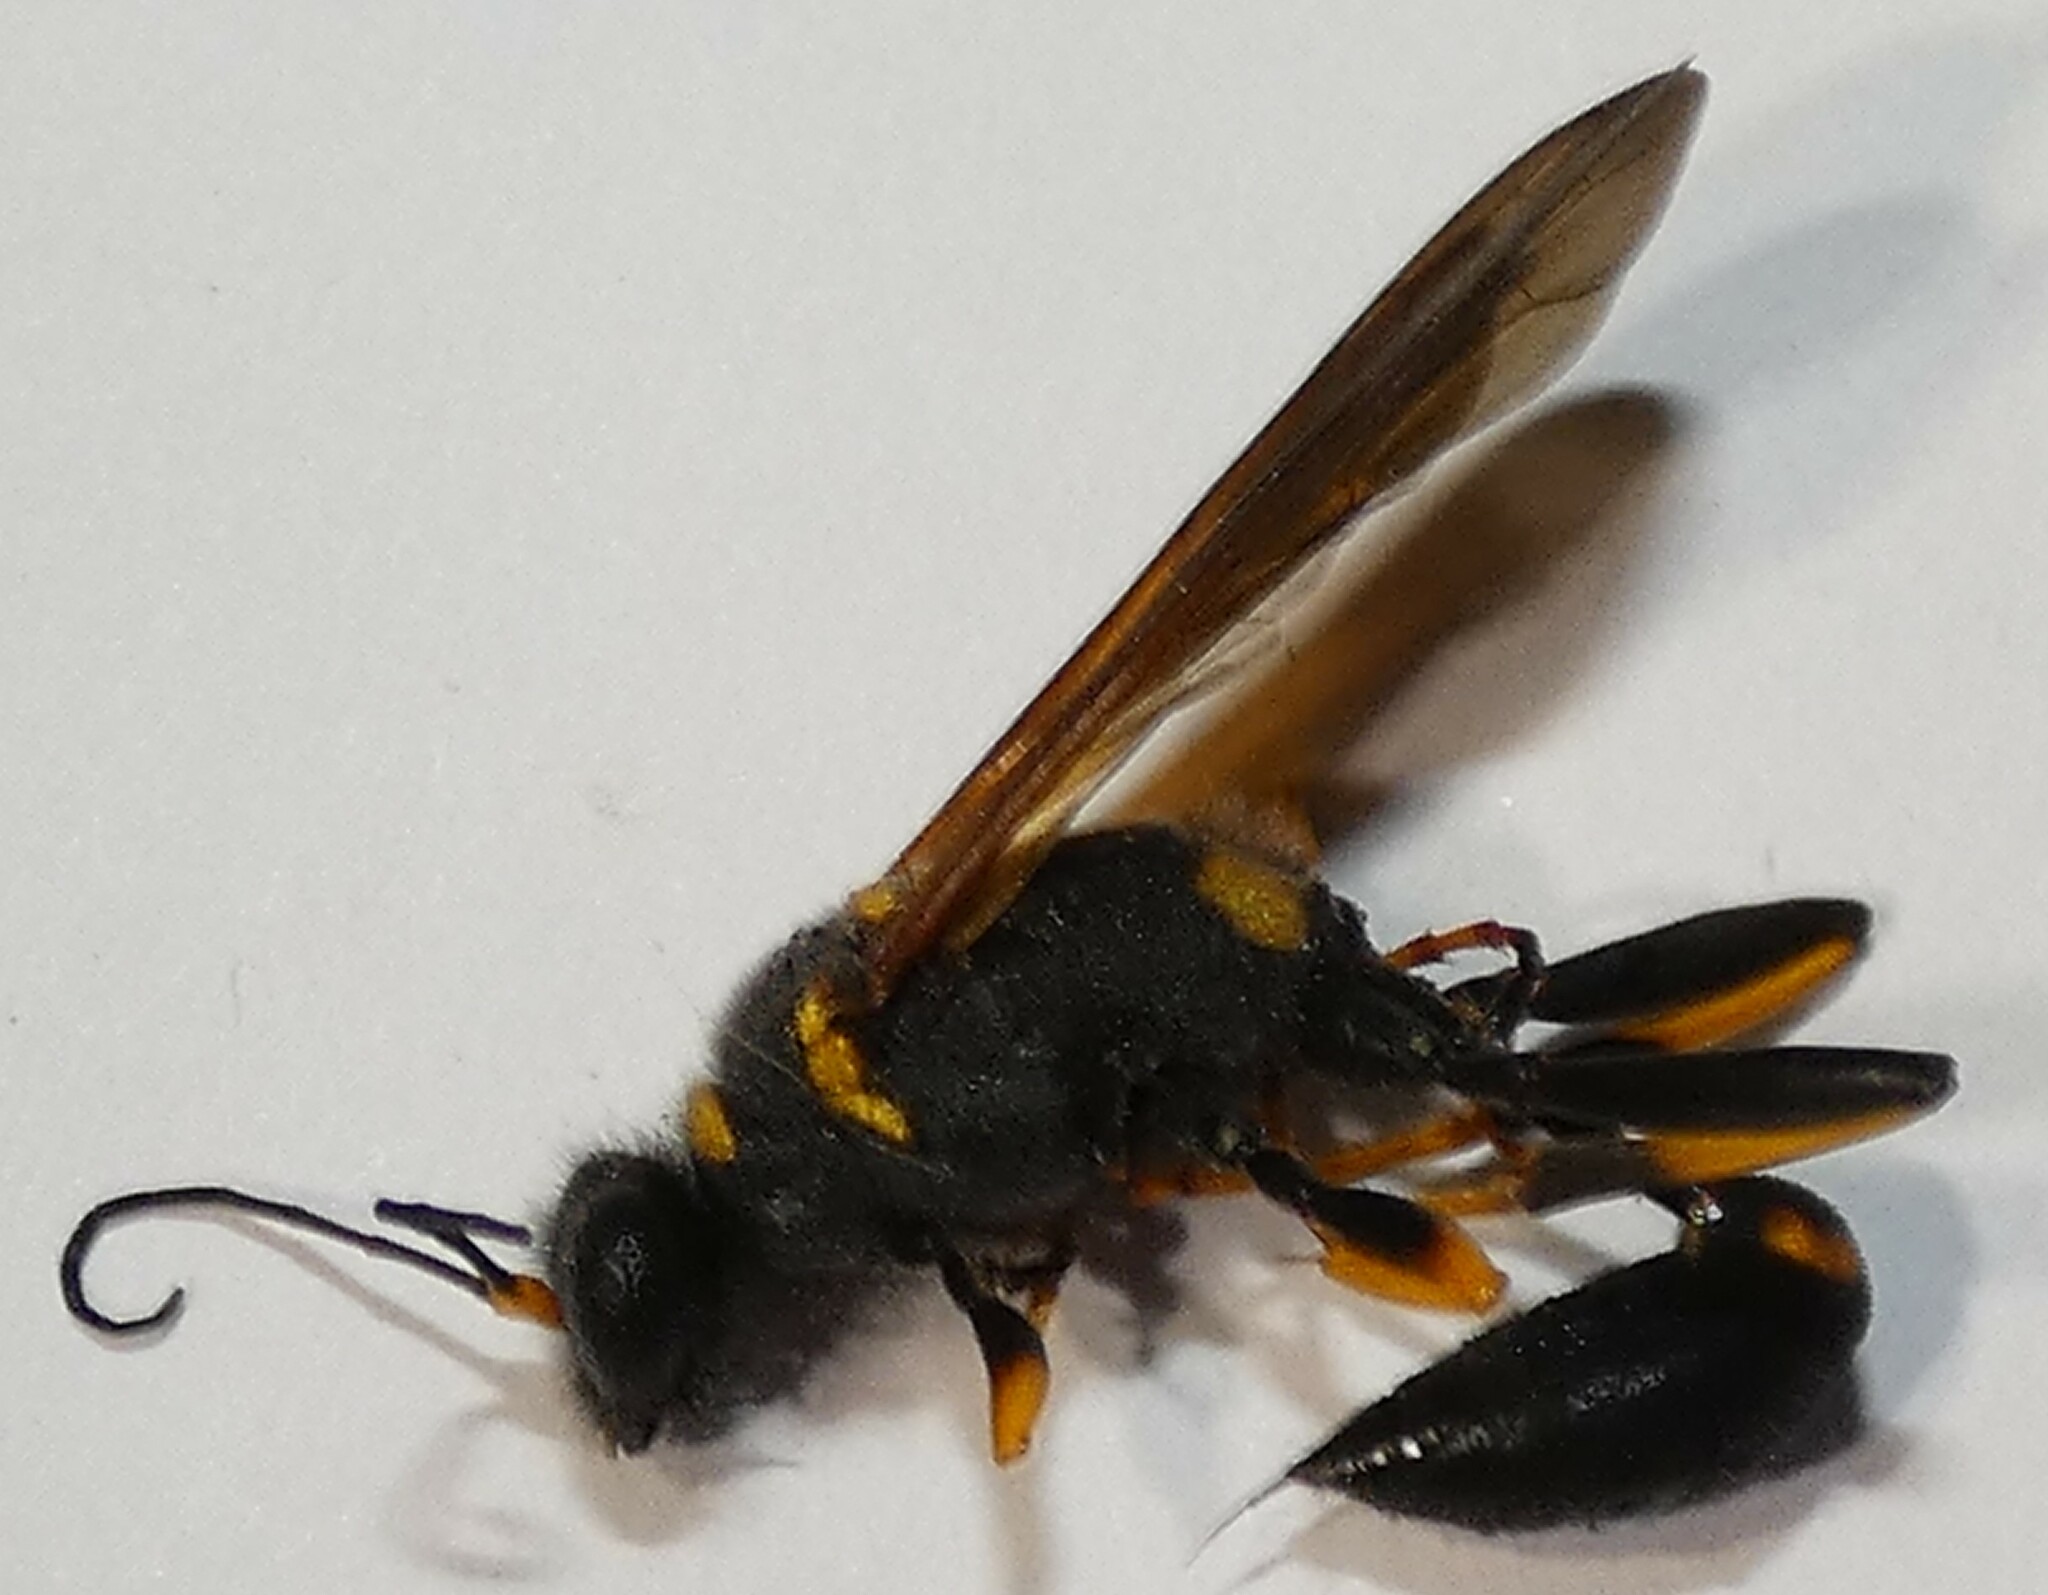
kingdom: Animalia
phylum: Arthropoda
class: Insecta
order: Hymenoptera
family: Sphecidae
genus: Sceliphron
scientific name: Sceliphron caementarium
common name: Mud dauber
